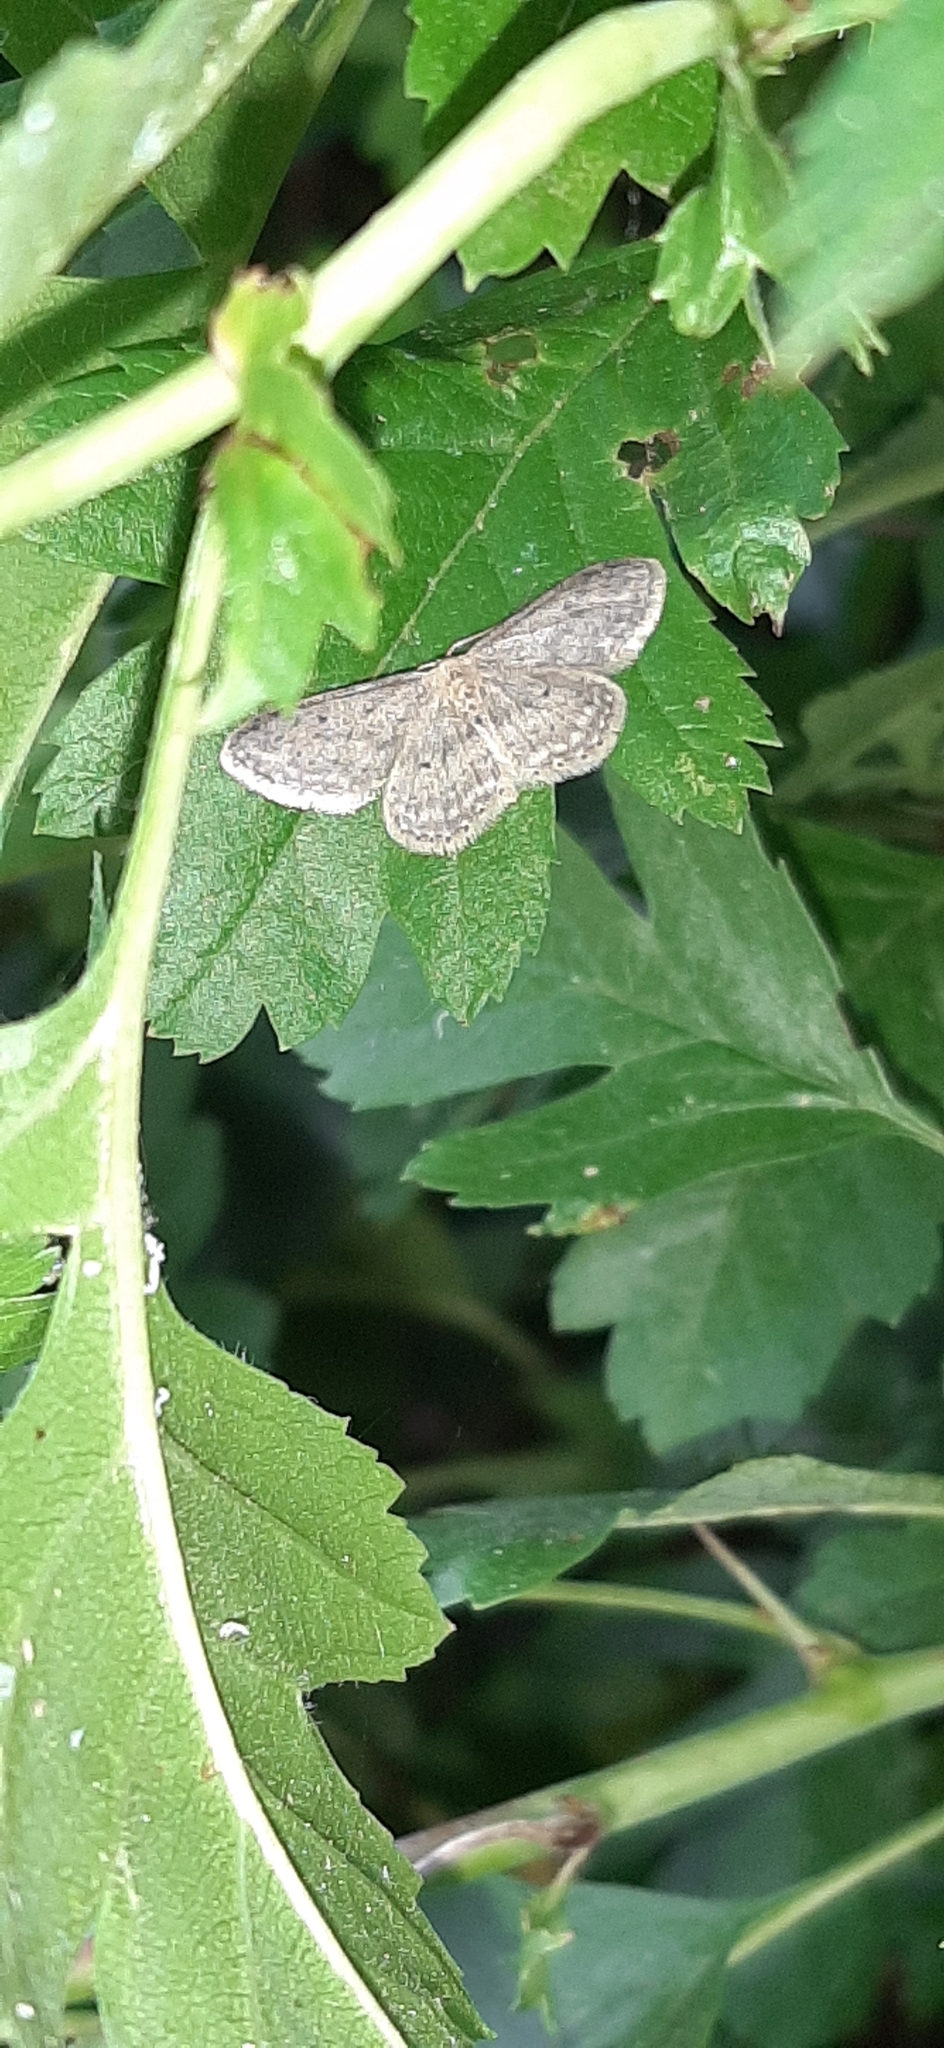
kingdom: Animalia
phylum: Arthropoda
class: Insecta
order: Lepidoptera
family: Geometridae
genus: Idaea
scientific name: Idaea seriata
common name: Small dusty wave
